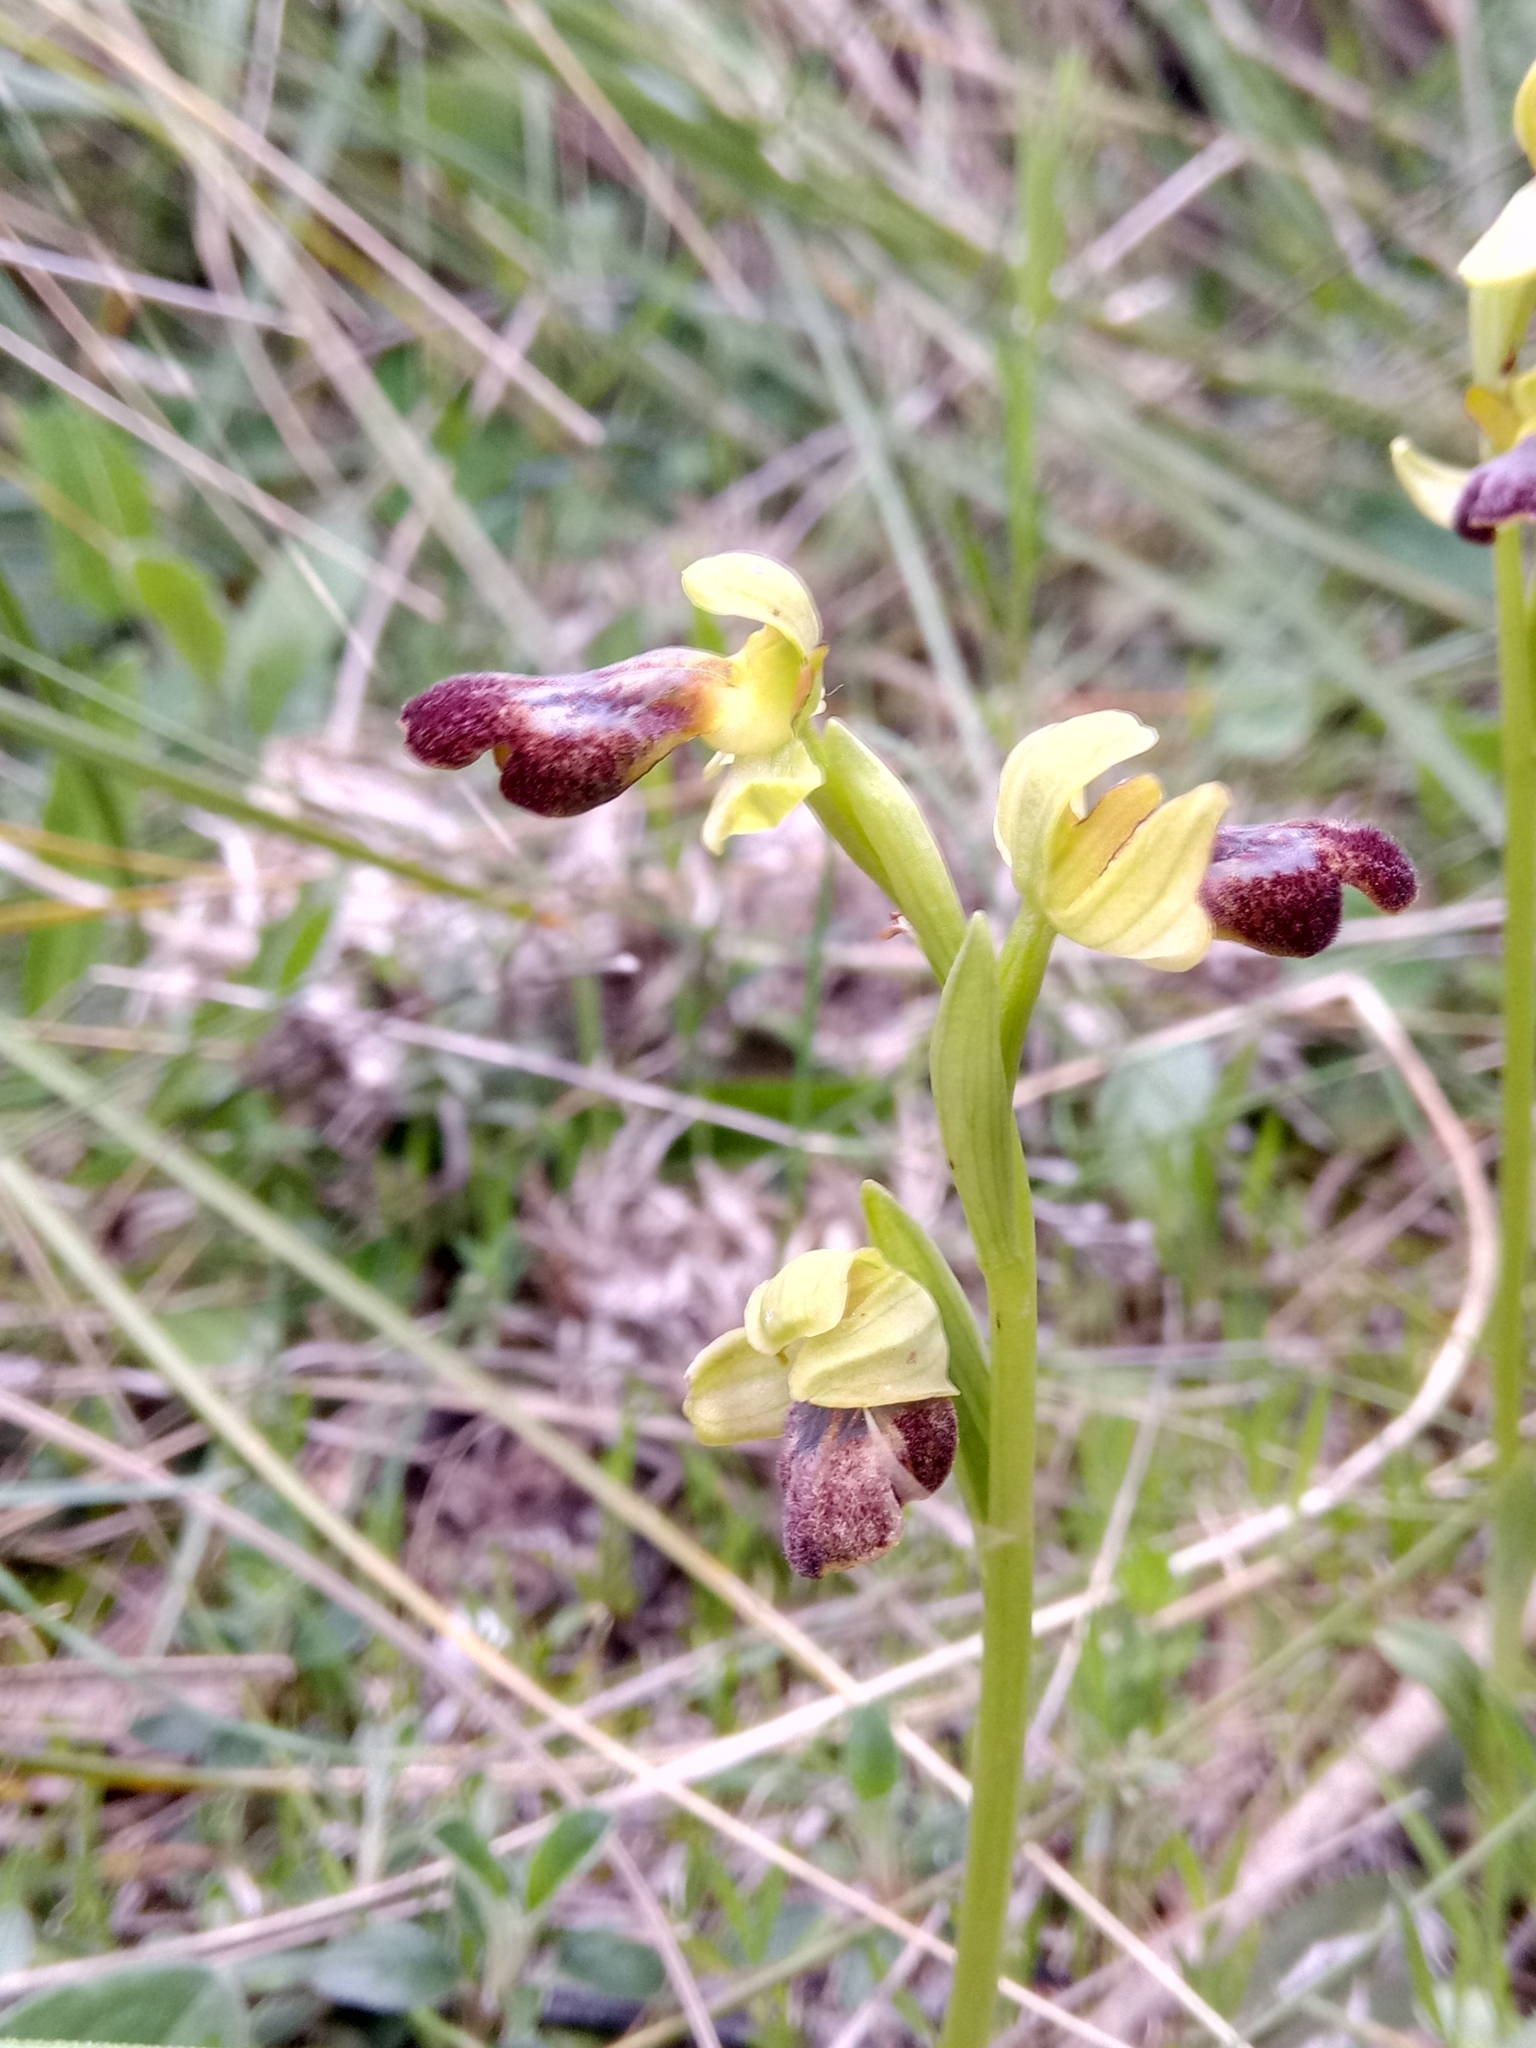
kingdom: Plantae
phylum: Tracheophyta
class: Liliopsida
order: Asparagales
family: Orchidaceae
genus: Ophrys
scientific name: Ophrys fusca
